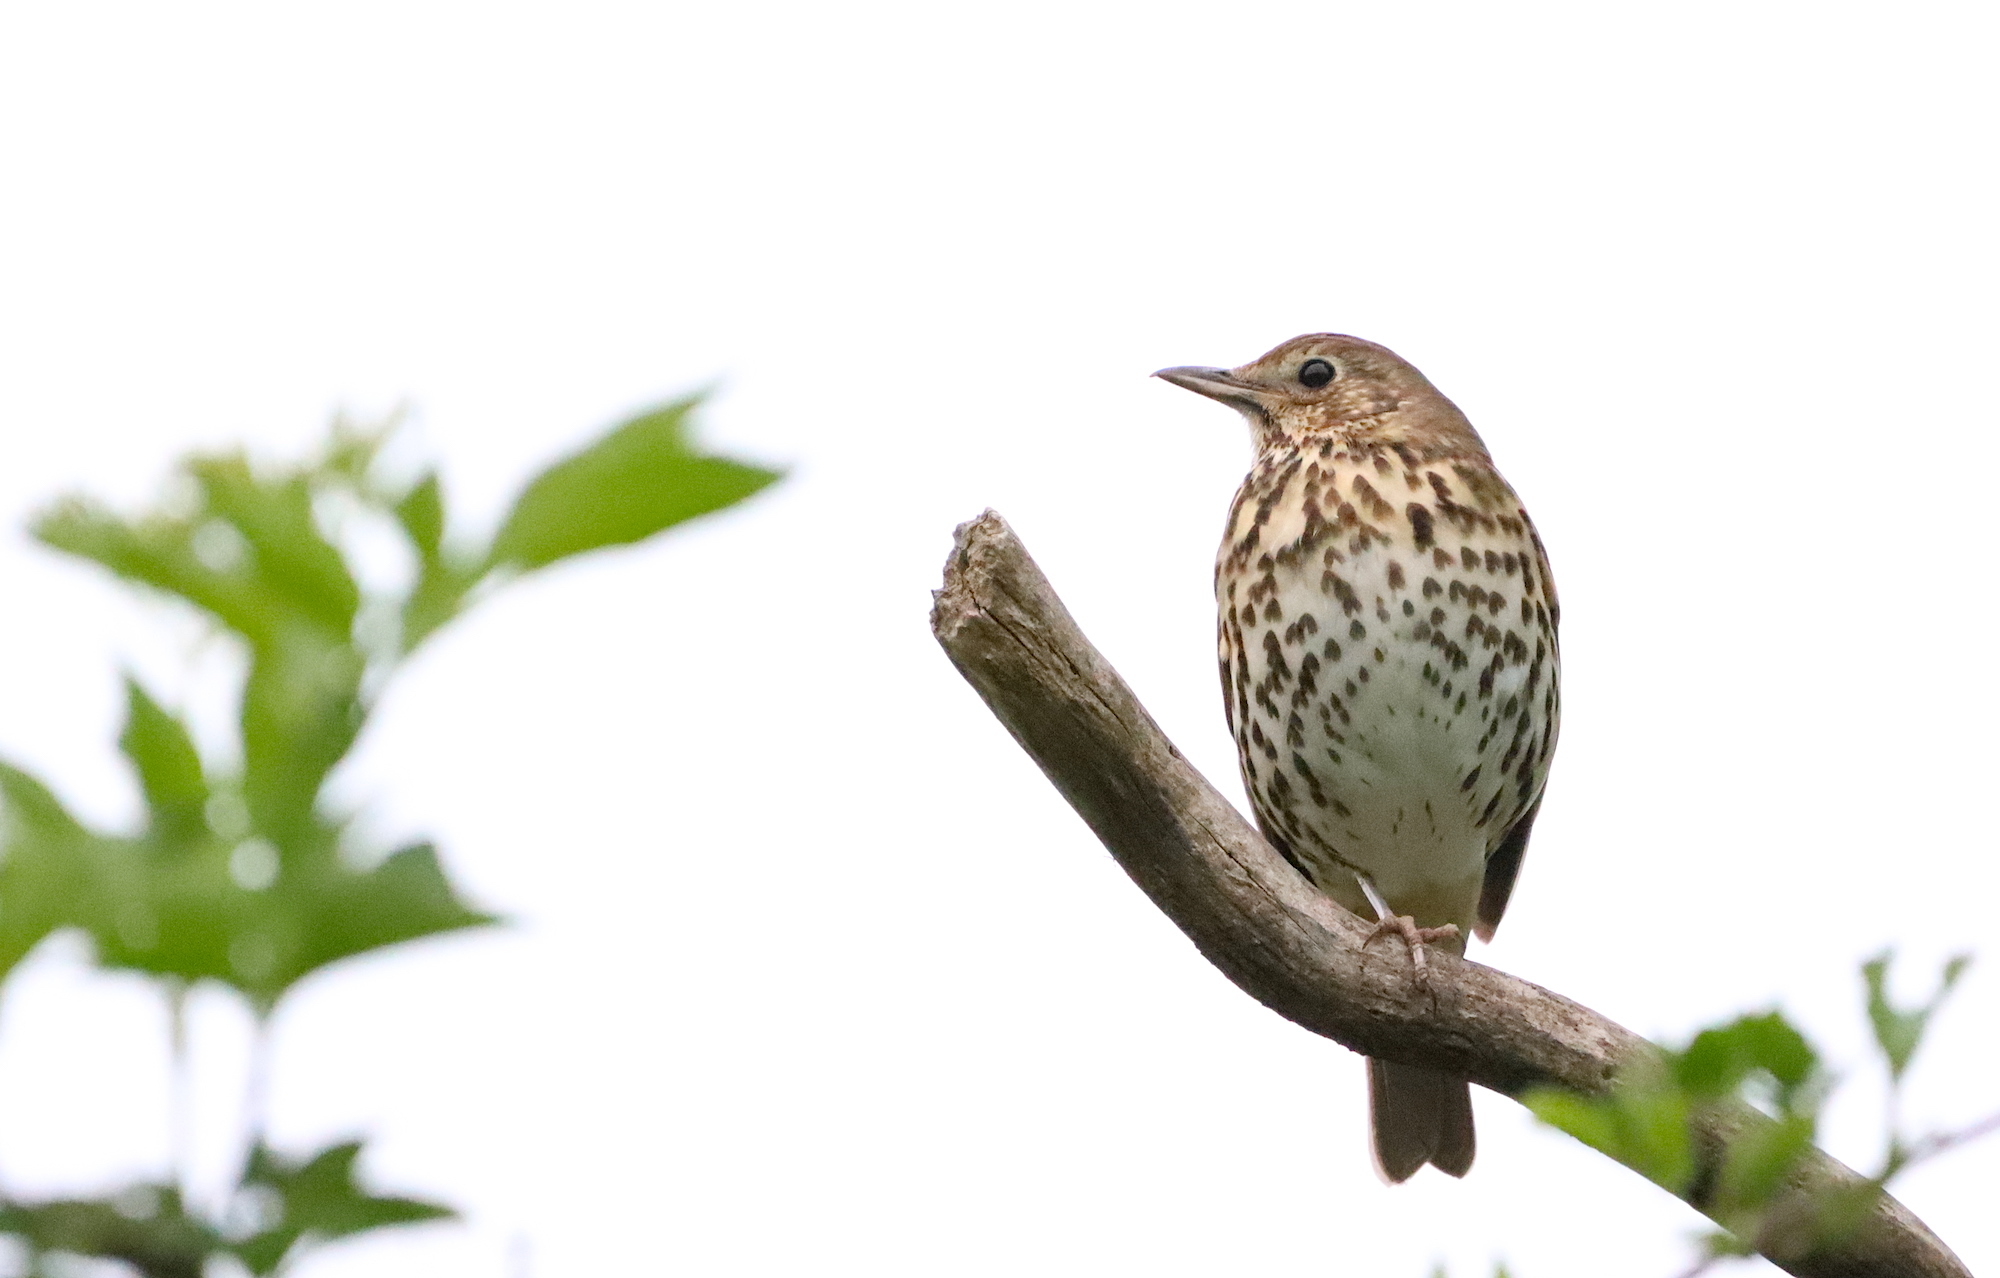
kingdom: Animalia
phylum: Chordata
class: Aves
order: Passeriformes
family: Turdidae
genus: Turdus
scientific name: Turdus philomelos
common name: Song thrush
